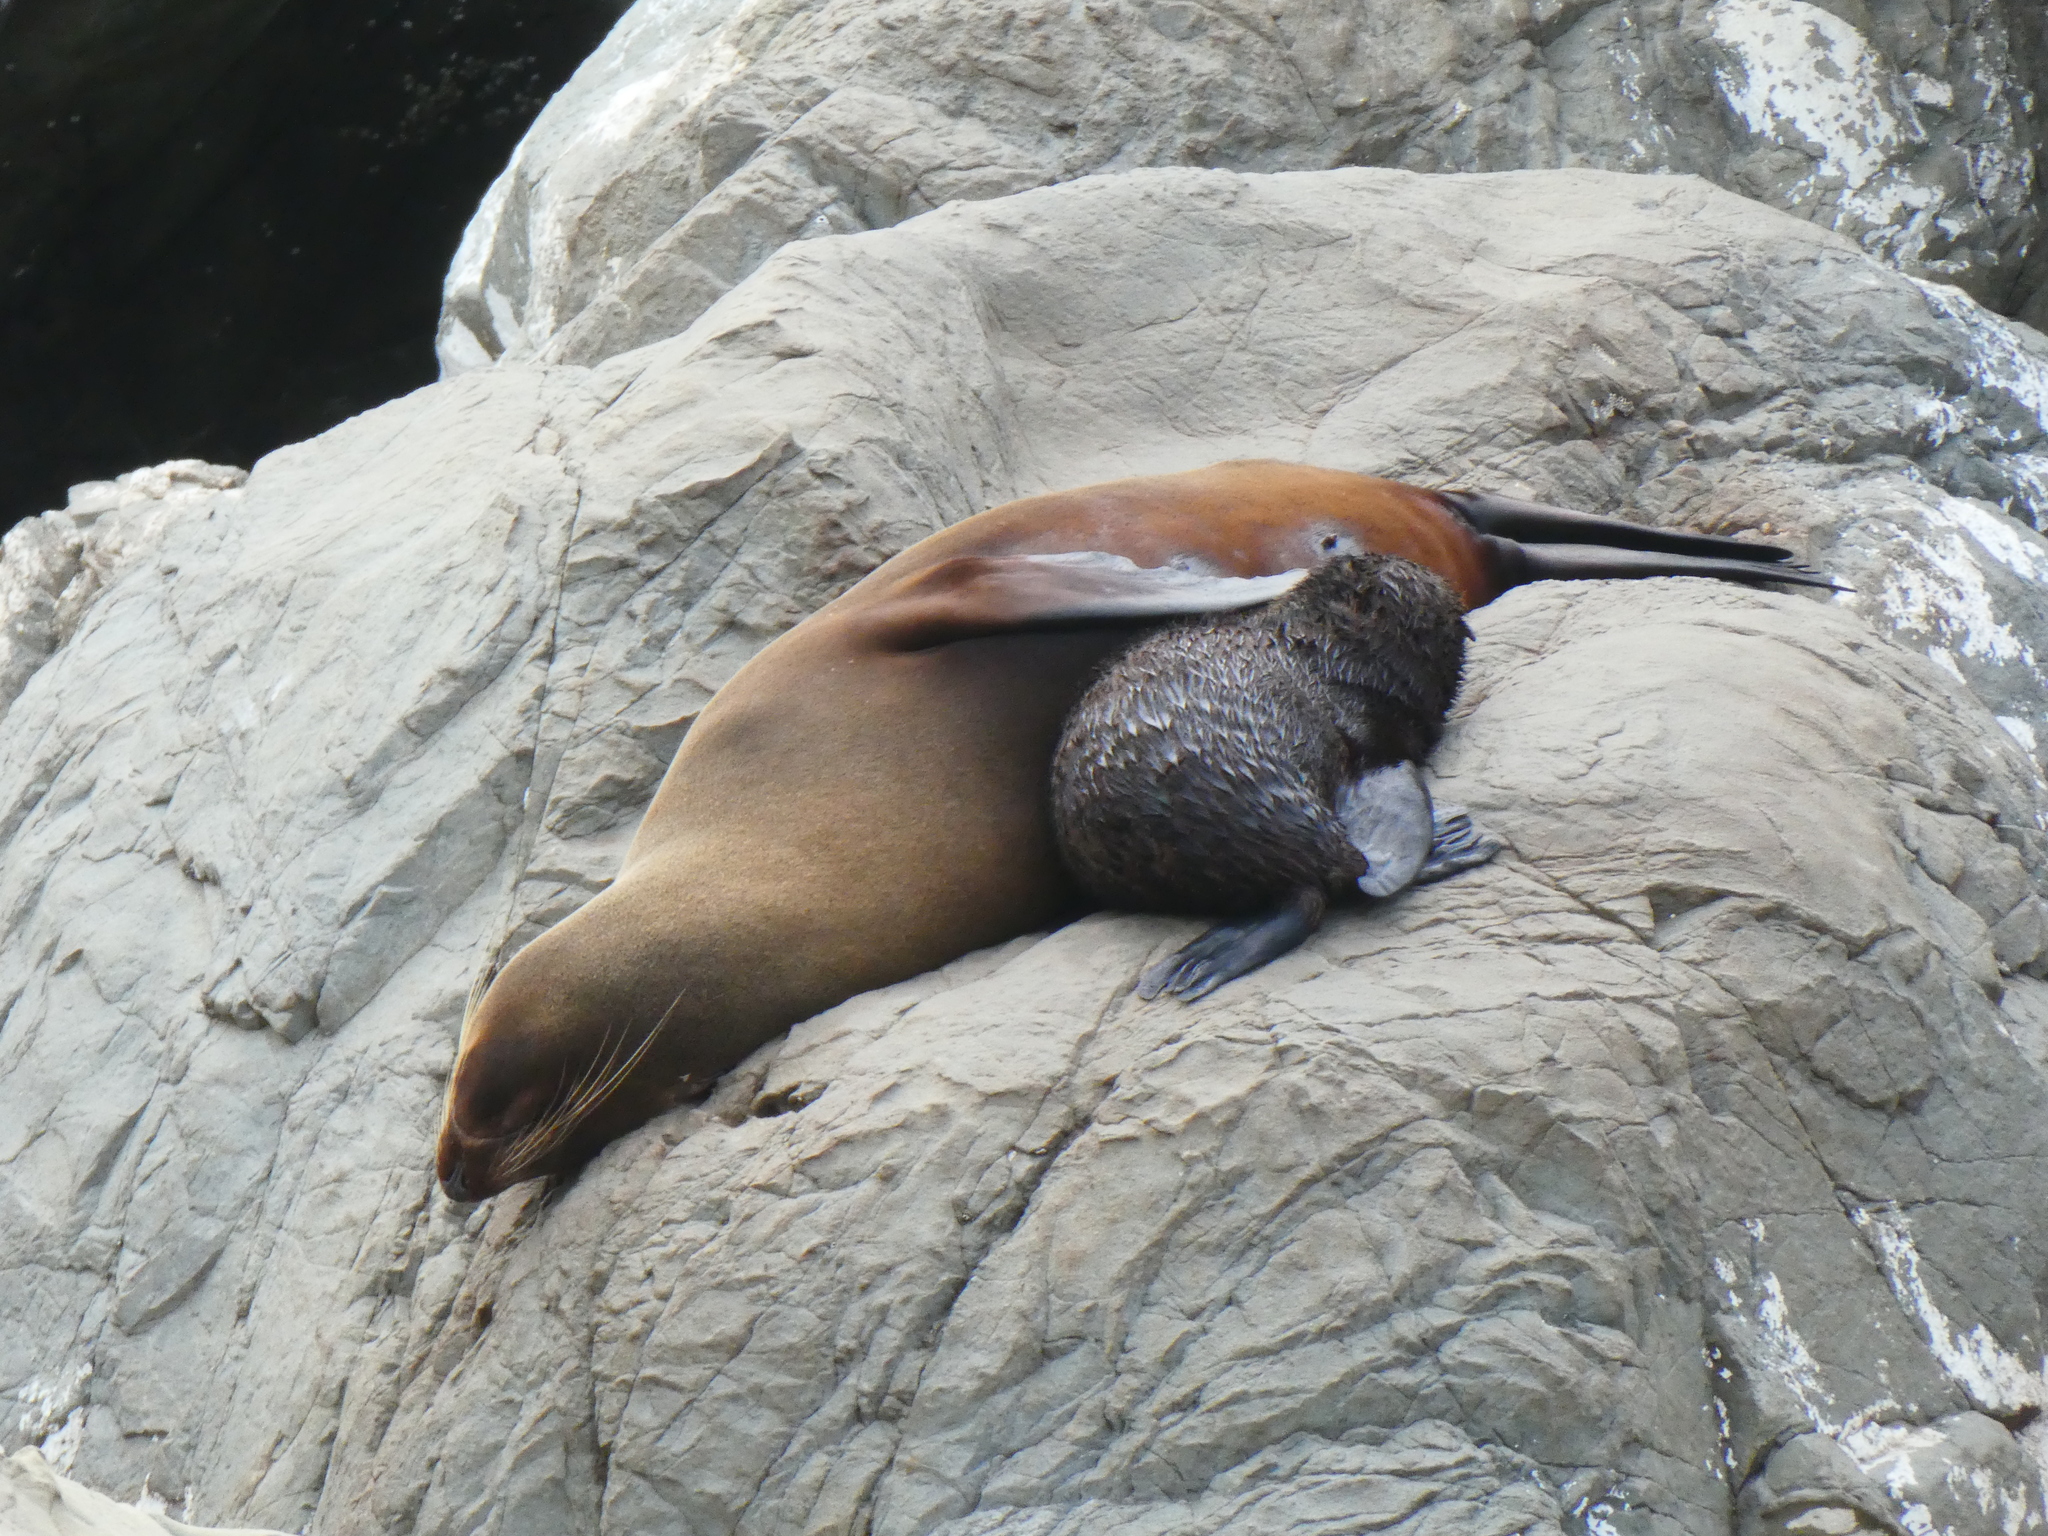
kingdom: Animalia
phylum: Chordata
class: Mammalia
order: Carnivora
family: Otariidae
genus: Arctocephalus
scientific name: Arctocephalus forsteri
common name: New zealand fur seal
